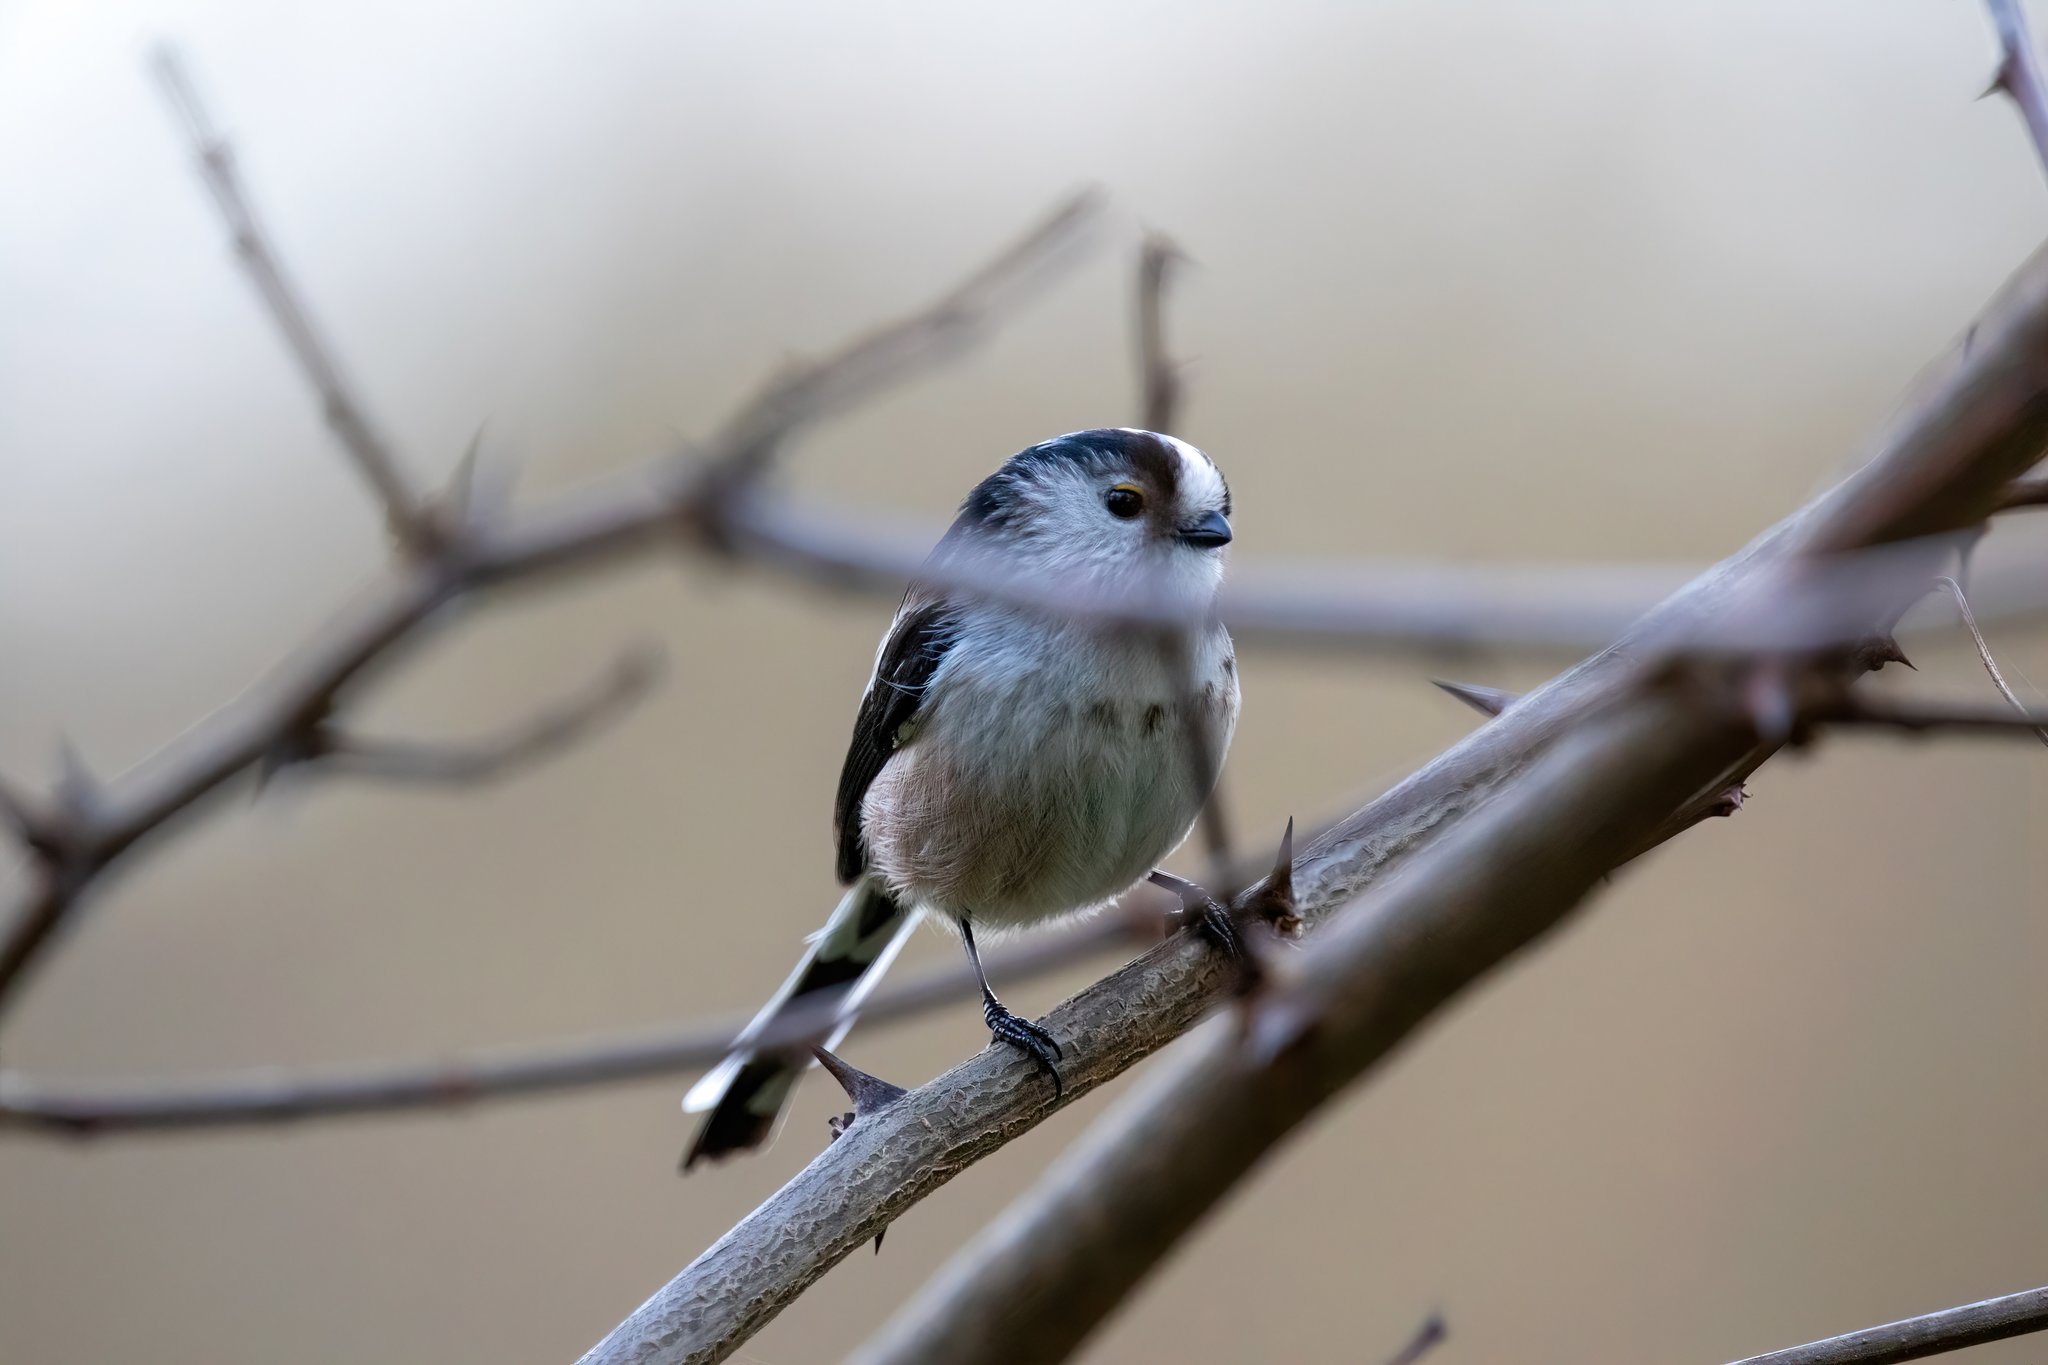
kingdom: Animalia
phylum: Chordata
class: Aves
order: Passeriformes
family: Aegithalidae
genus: Aegithalos
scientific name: Aegithalos caudatus
